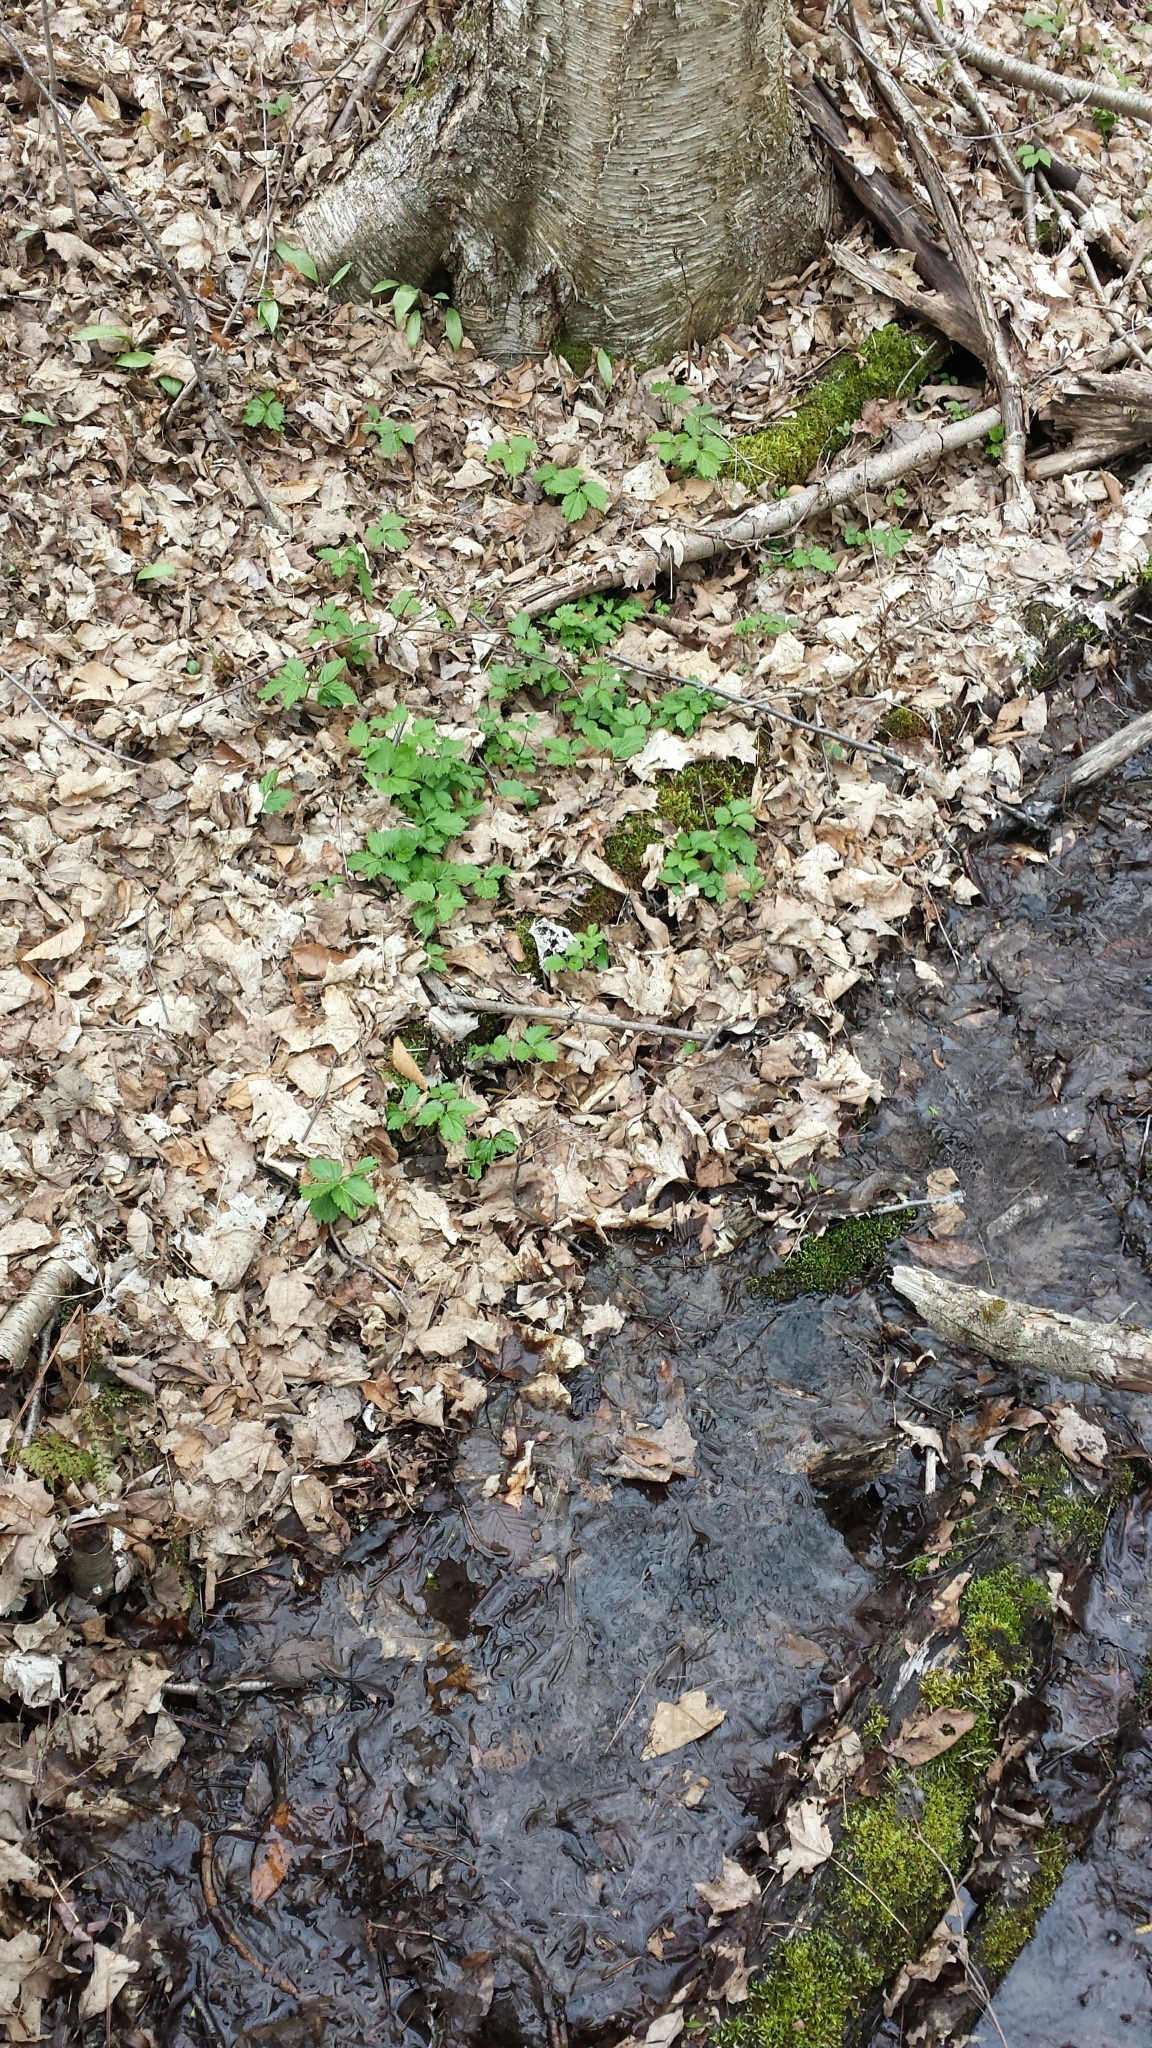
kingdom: Plantae
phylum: Tracheophyta
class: Magnoliopsida
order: Brassicales
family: Brassicaceae
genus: Cardamine
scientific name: Cardamine diphylla
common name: Broad-leaved toothwort
